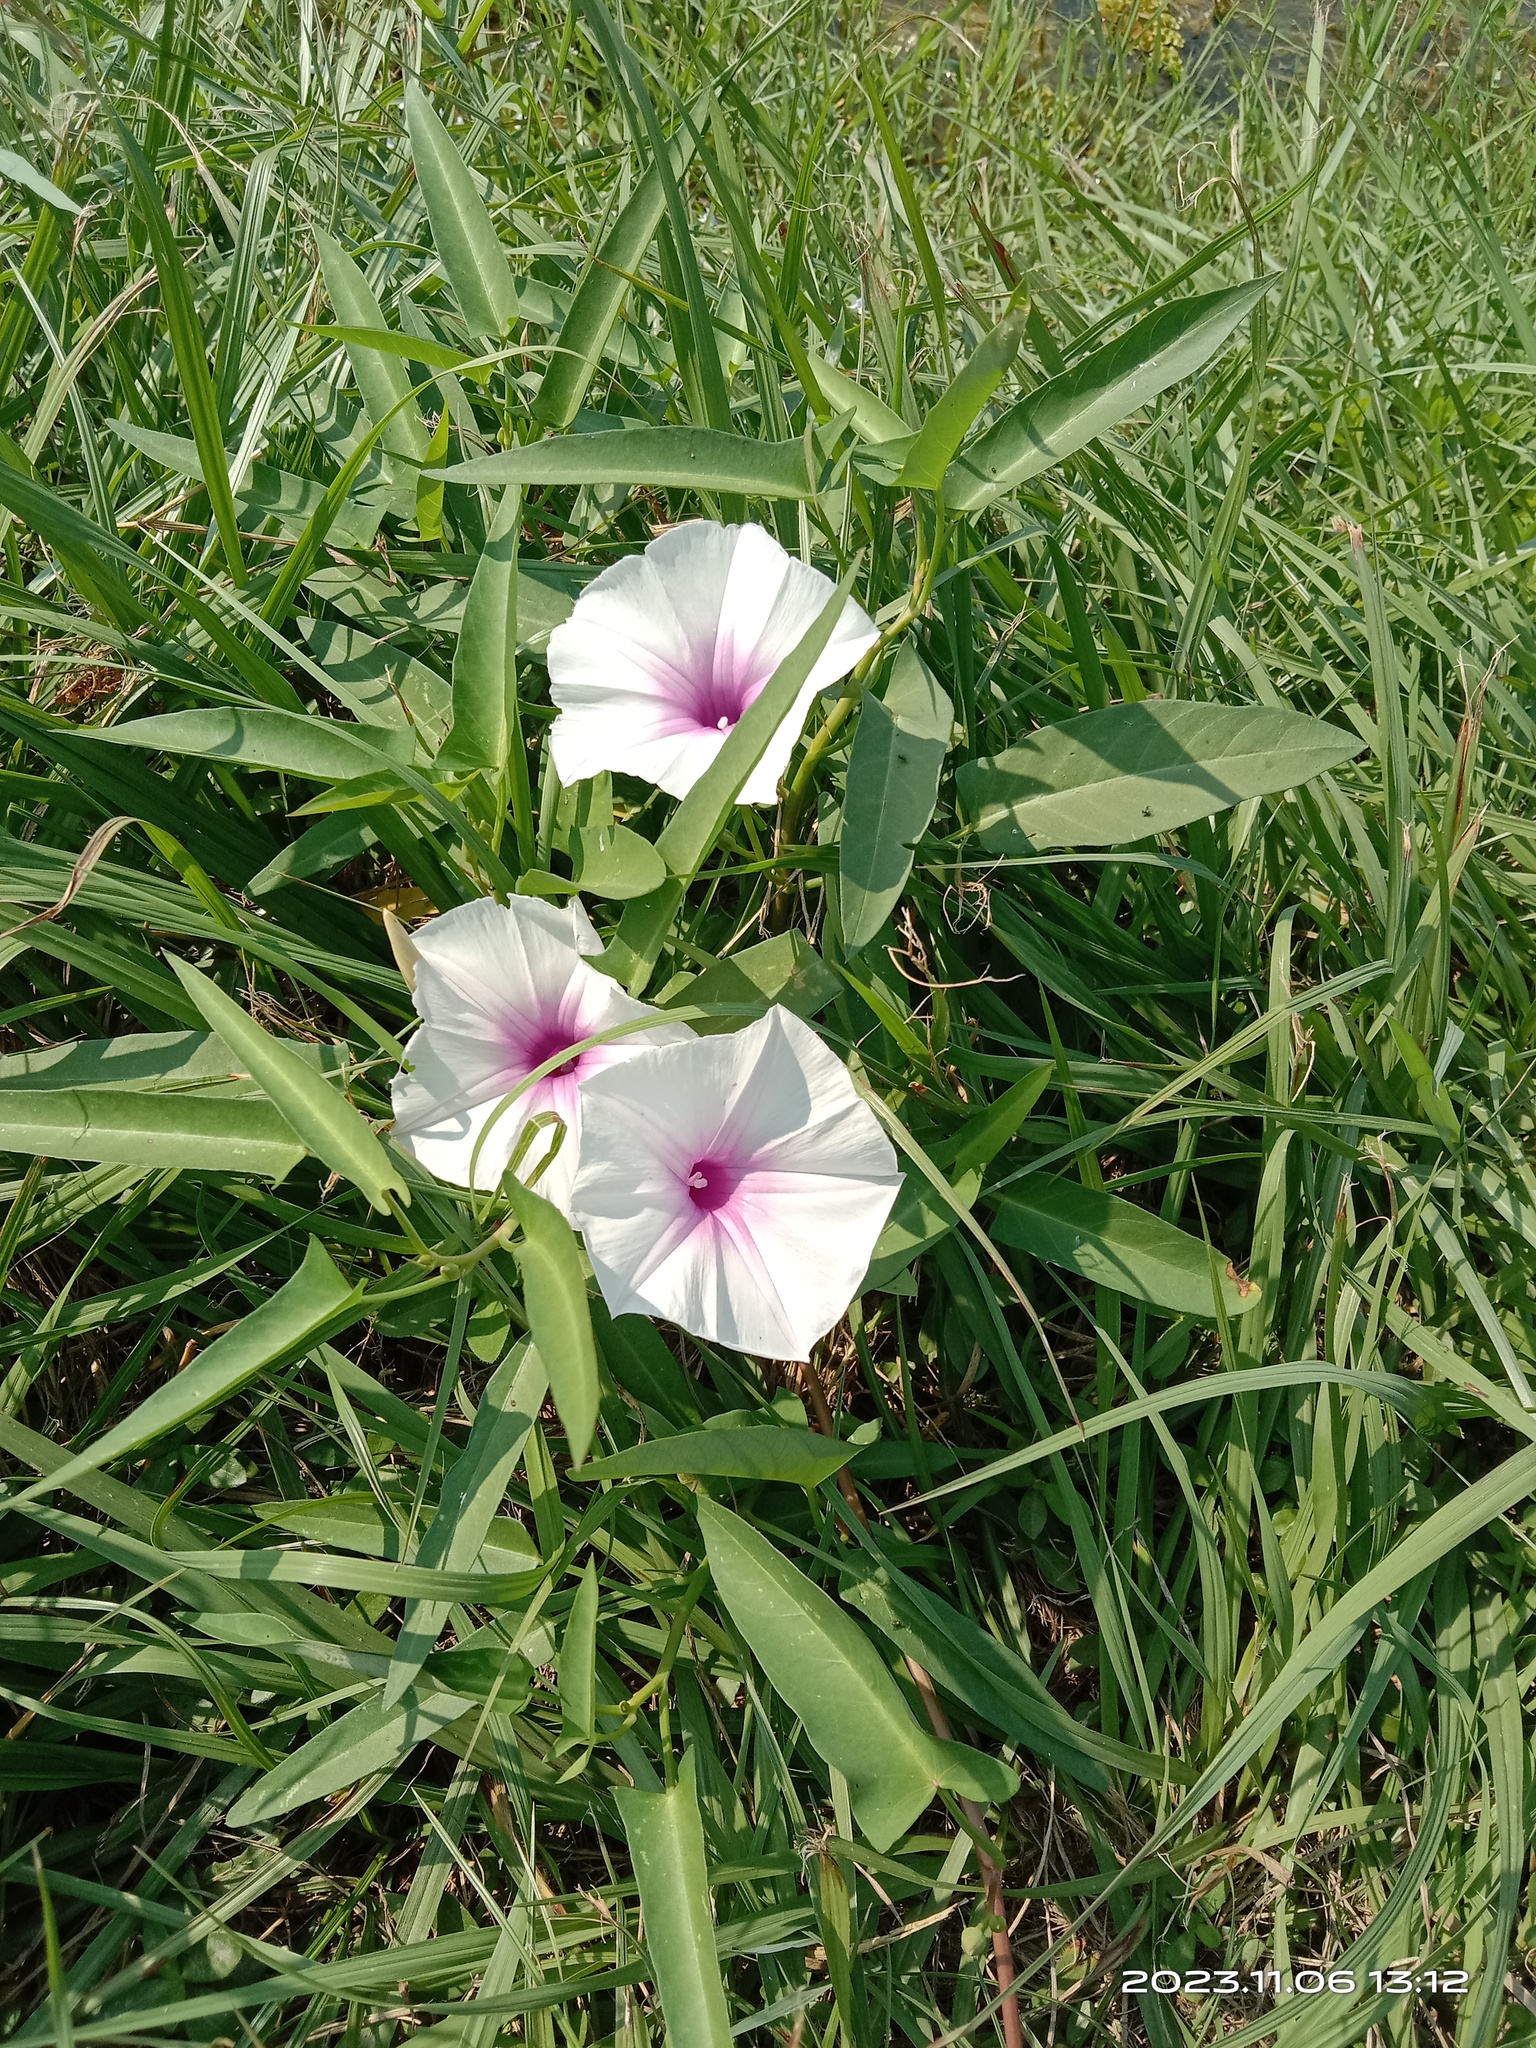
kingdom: Plantae
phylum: Tracheophyta
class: Magnoliopsida
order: Solanales
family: Convolvulaceae
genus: Ipomoea
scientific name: Ipomoea aquatica
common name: Swamp morning-glory
